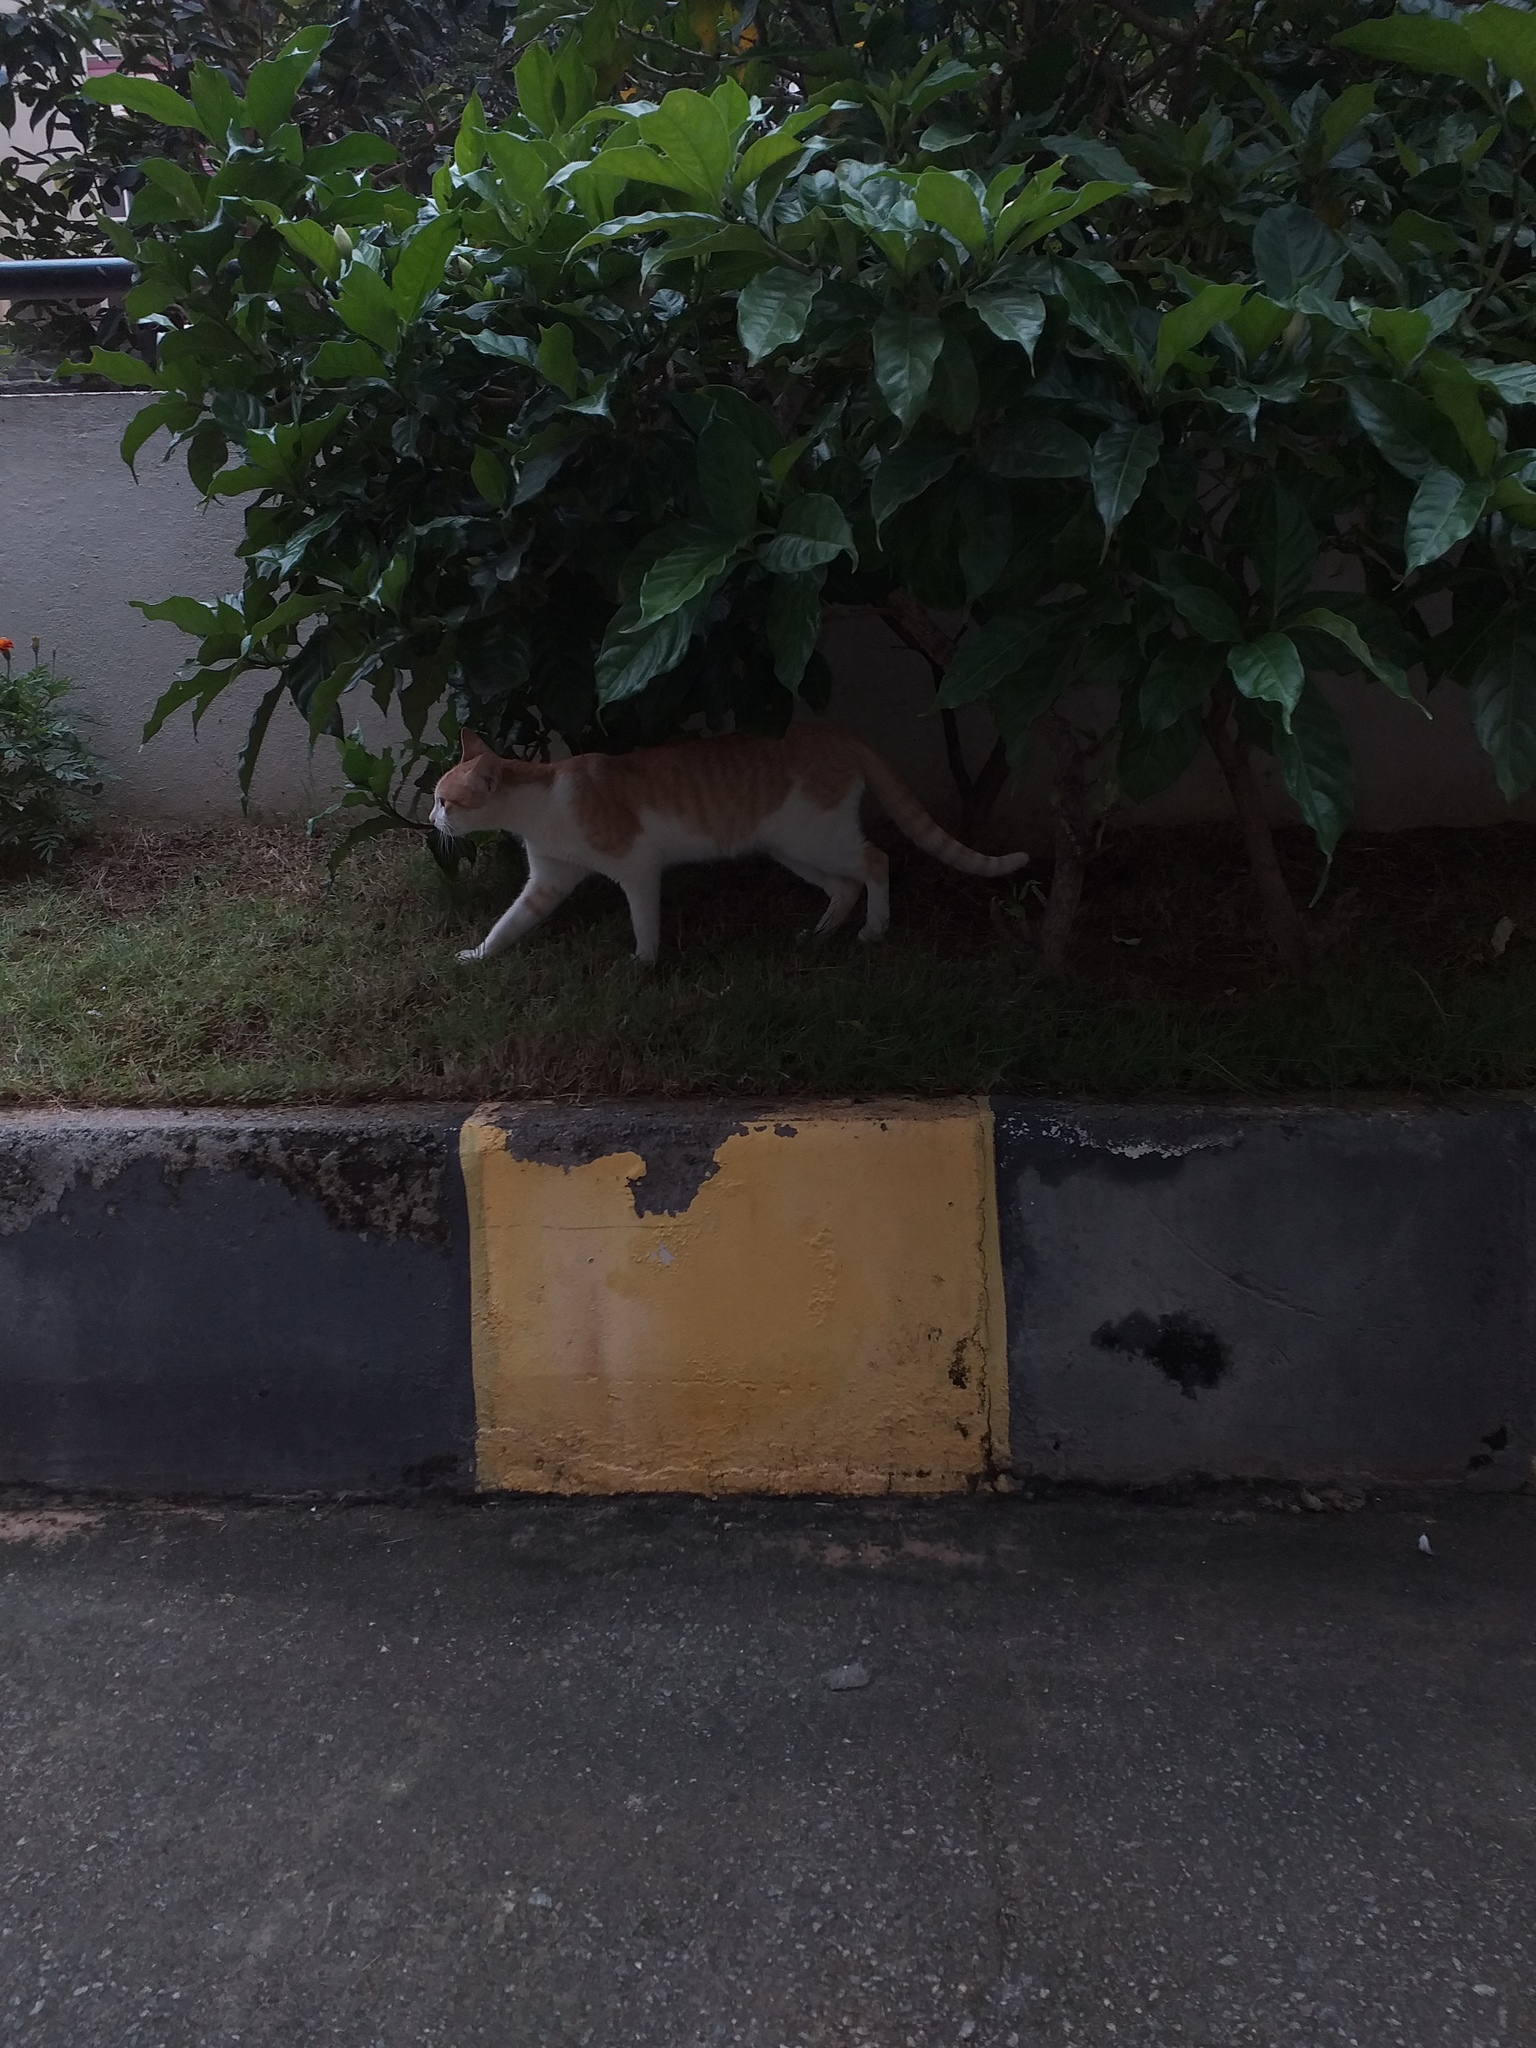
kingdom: Animalia
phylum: Chordata
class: Mammalia
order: Carnivora
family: Felidae
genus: Felis
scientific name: Felis catus
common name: Domestic cat
